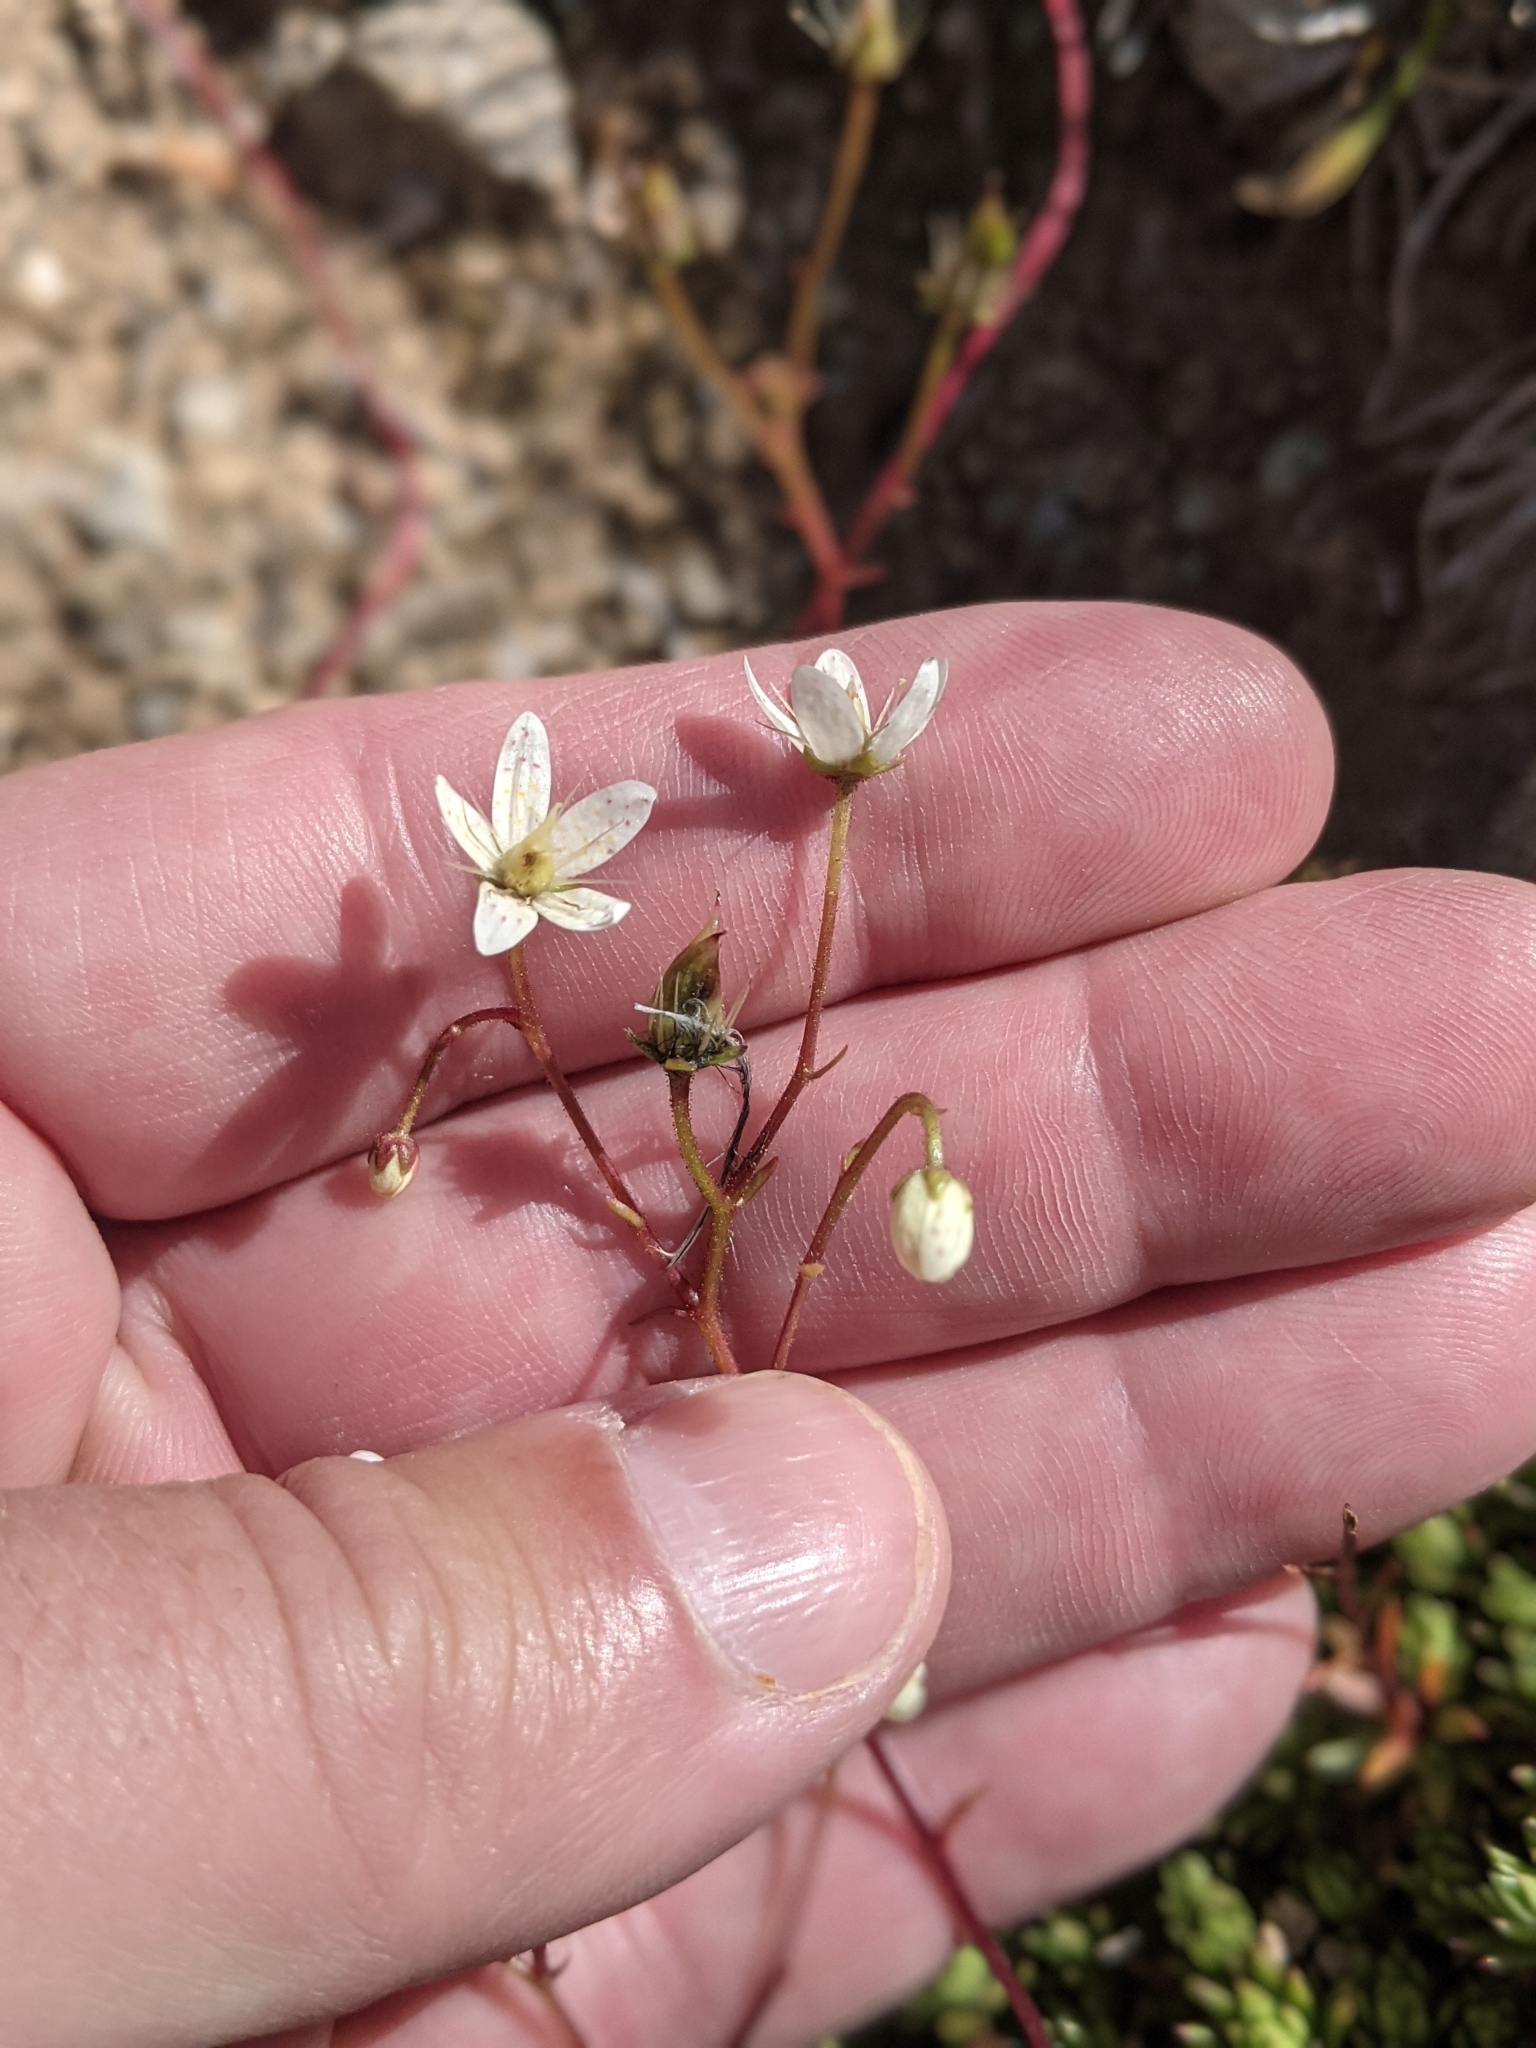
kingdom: Plantae
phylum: Tracheophyta
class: Magnoliopsida
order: Saxifragales
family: Saxifragaceae
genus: Saxifraga
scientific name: Saxifraga bronchialis
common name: Matted saxifrage
